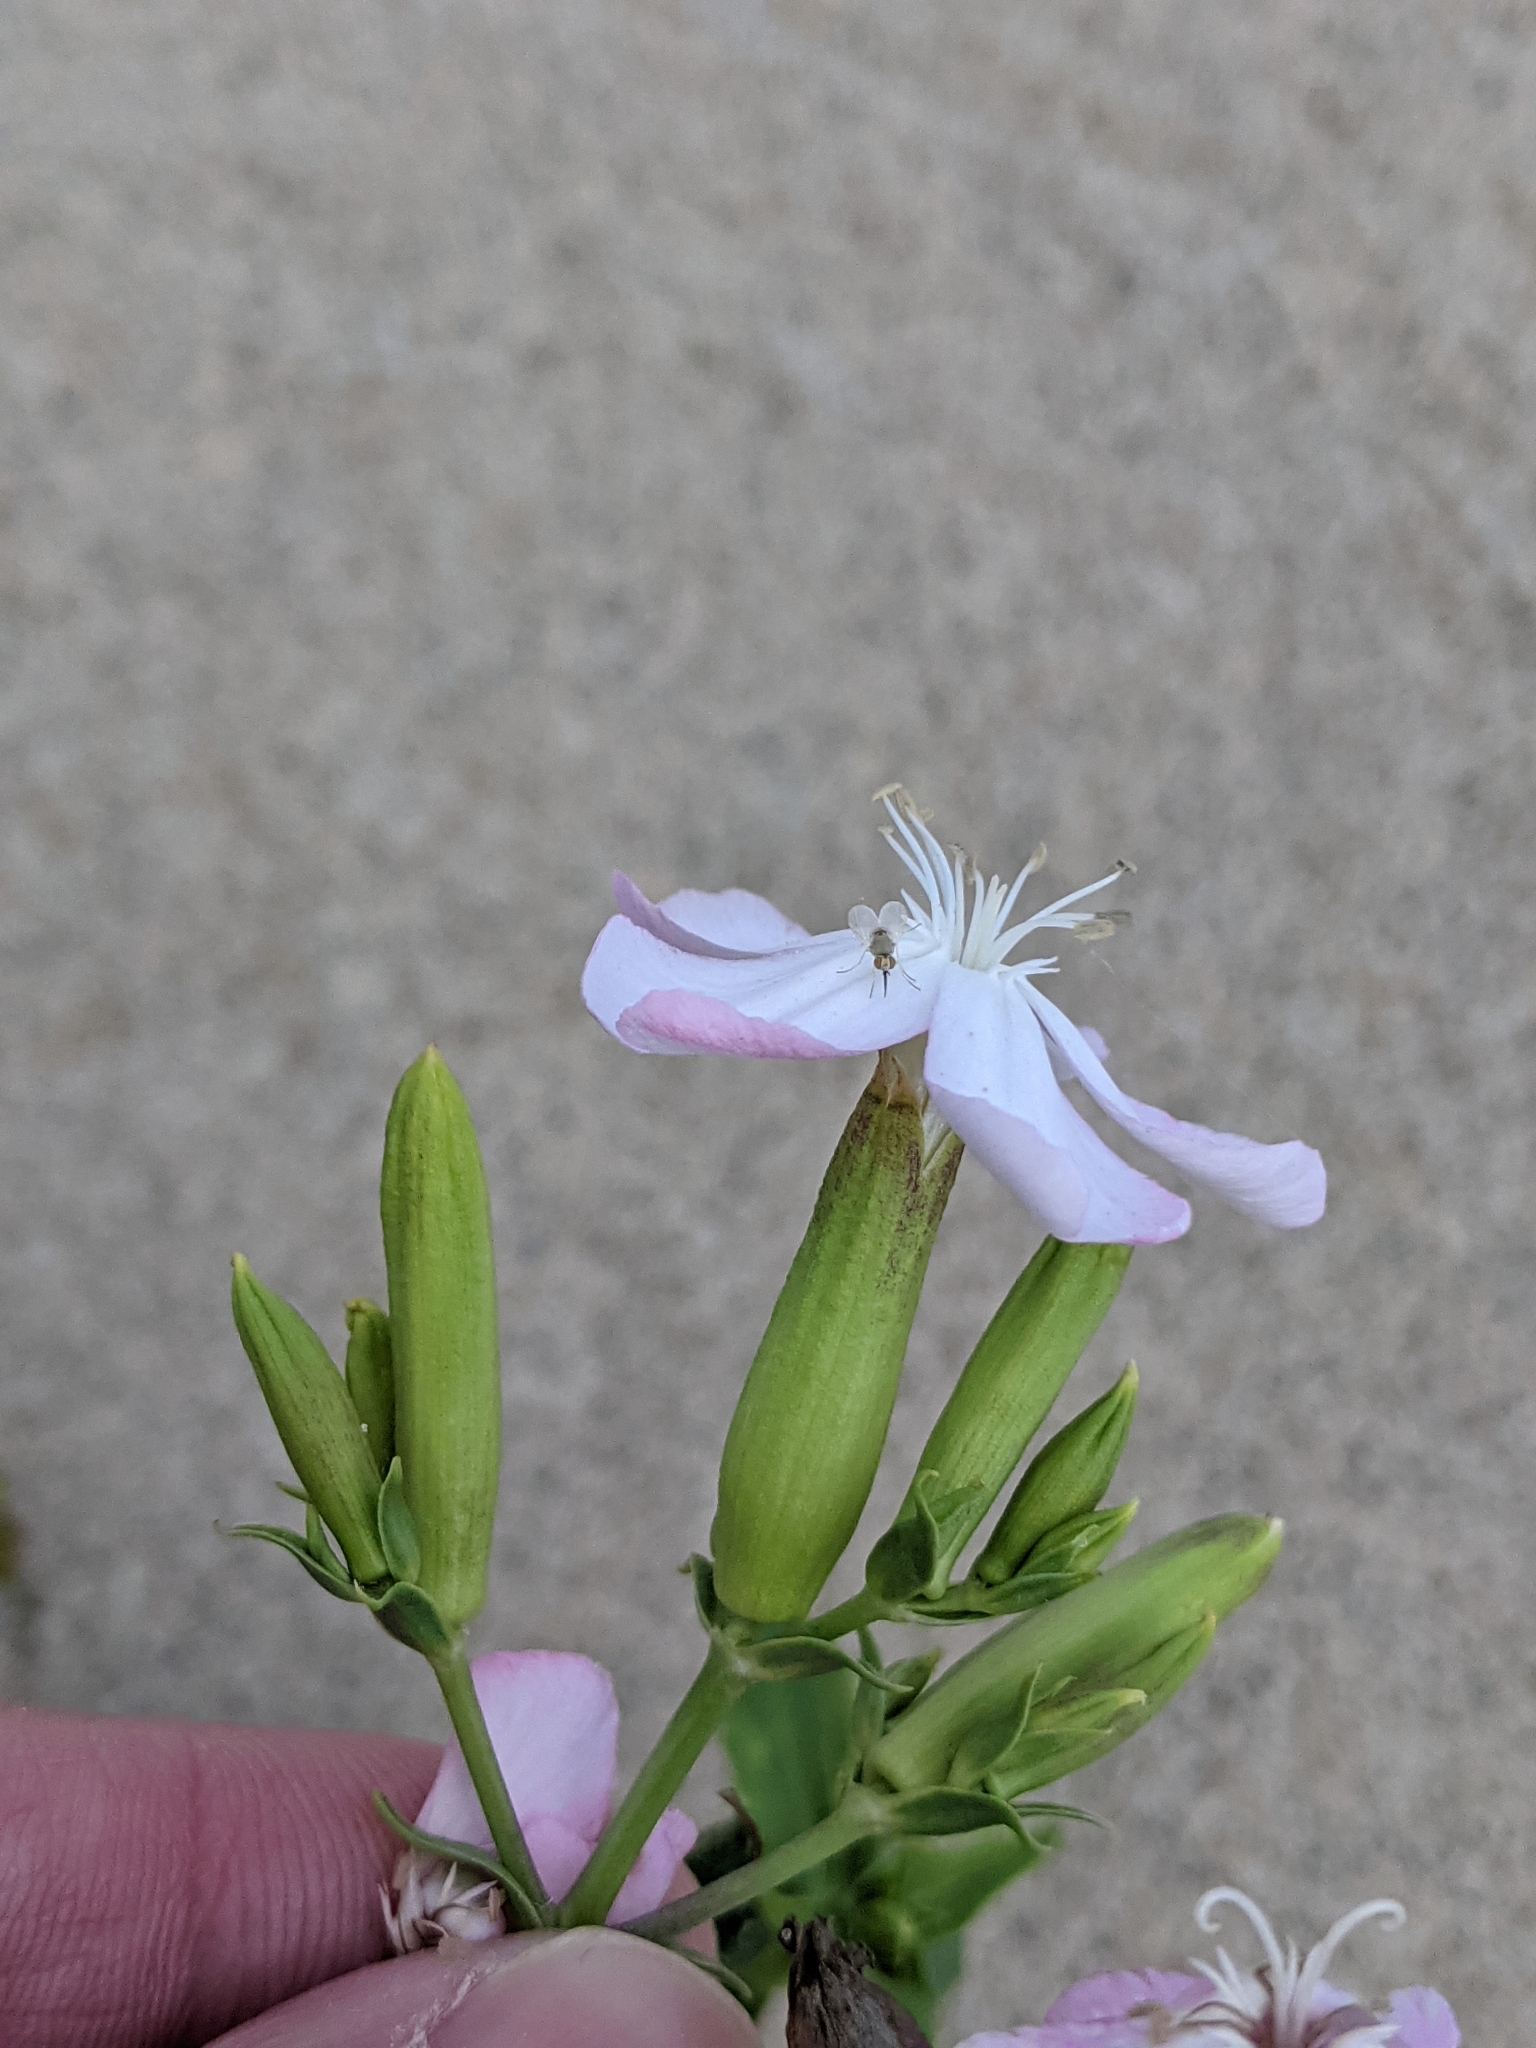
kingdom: Plantae
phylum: Tracheophyta
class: Magnoliopsida
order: Caryophyllales
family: Caryophyllaceae
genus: Saponaria
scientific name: Saponaria officinalis
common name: Soapwort
